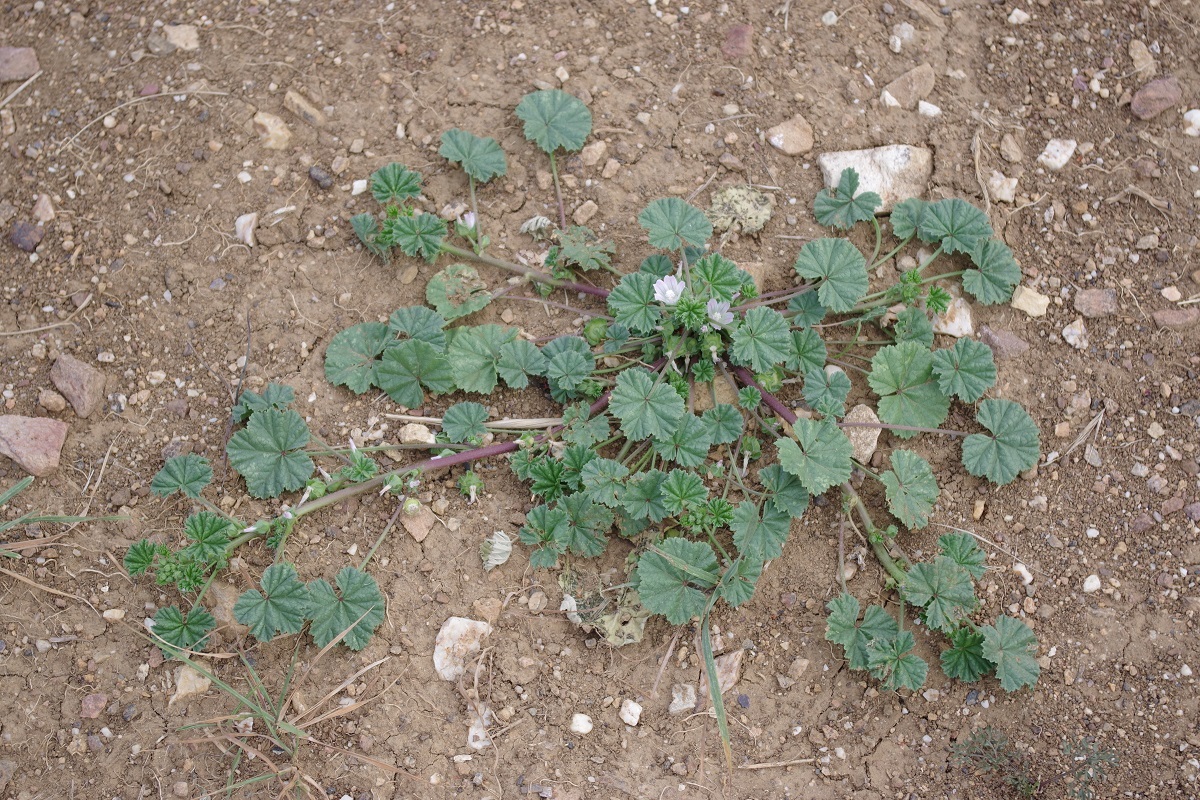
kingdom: Plantae
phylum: Tracheophyta
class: Magnoliopsida
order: Malvales
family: Malvaceae
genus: Malva
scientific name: Malva neglecta
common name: Common mallow
